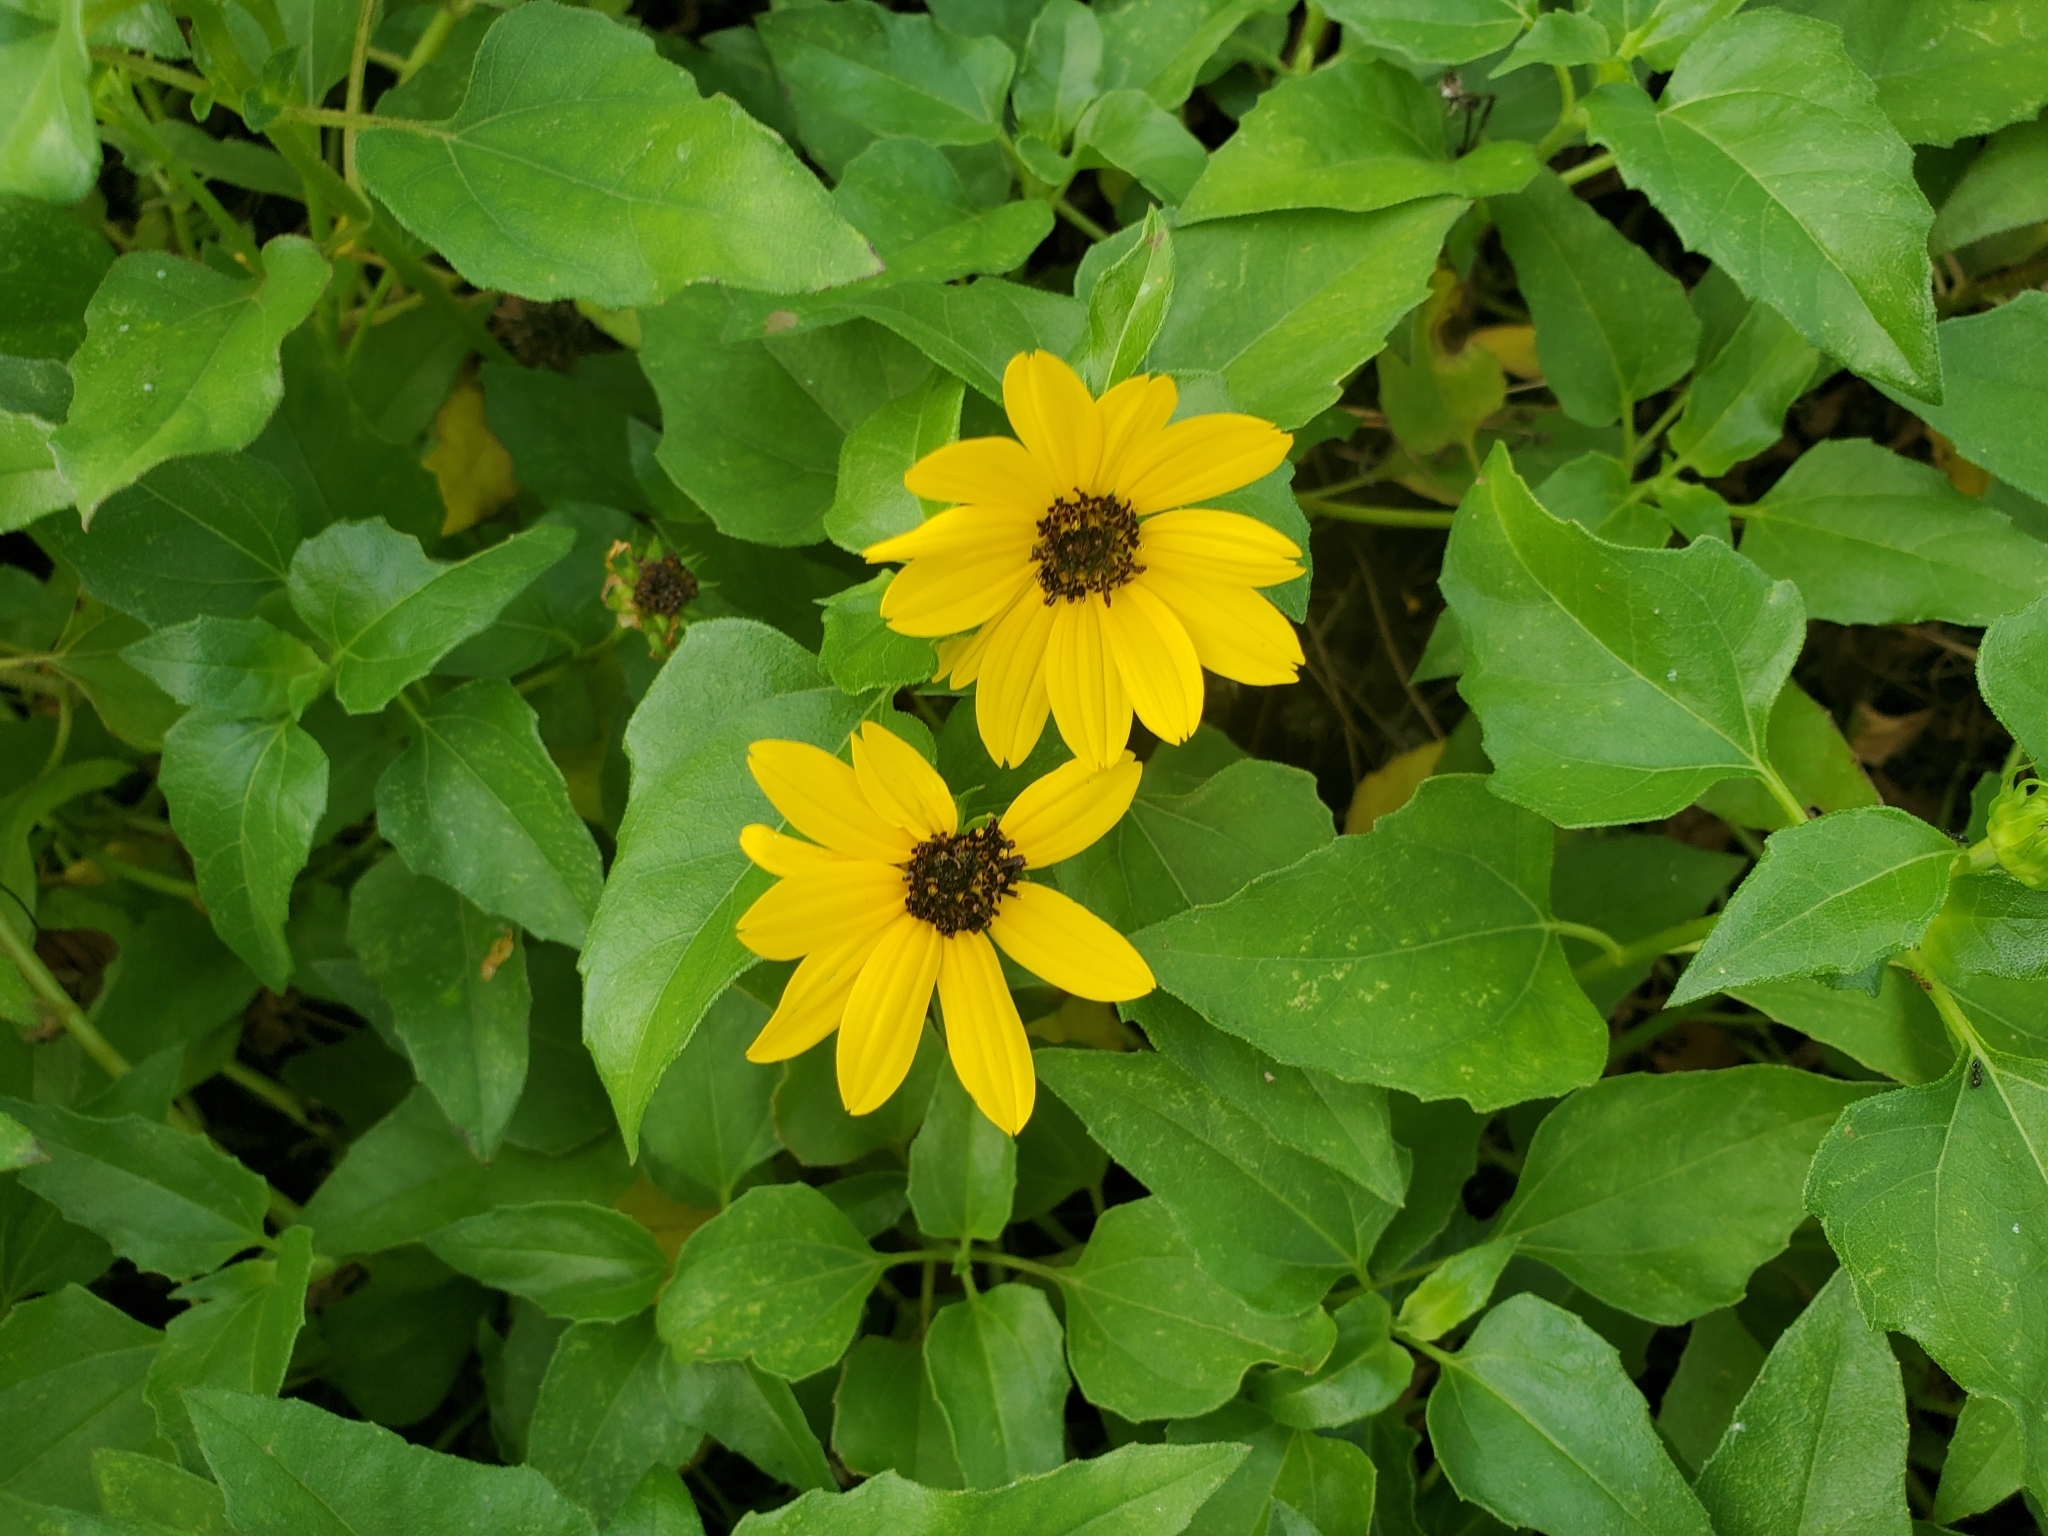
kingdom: Plantae
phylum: Tracheophyta
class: Magnoliopsida
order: Asterales
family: Asteraceae
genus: Helianthus
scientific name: Helianthus debilis
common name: Weak sunflower
